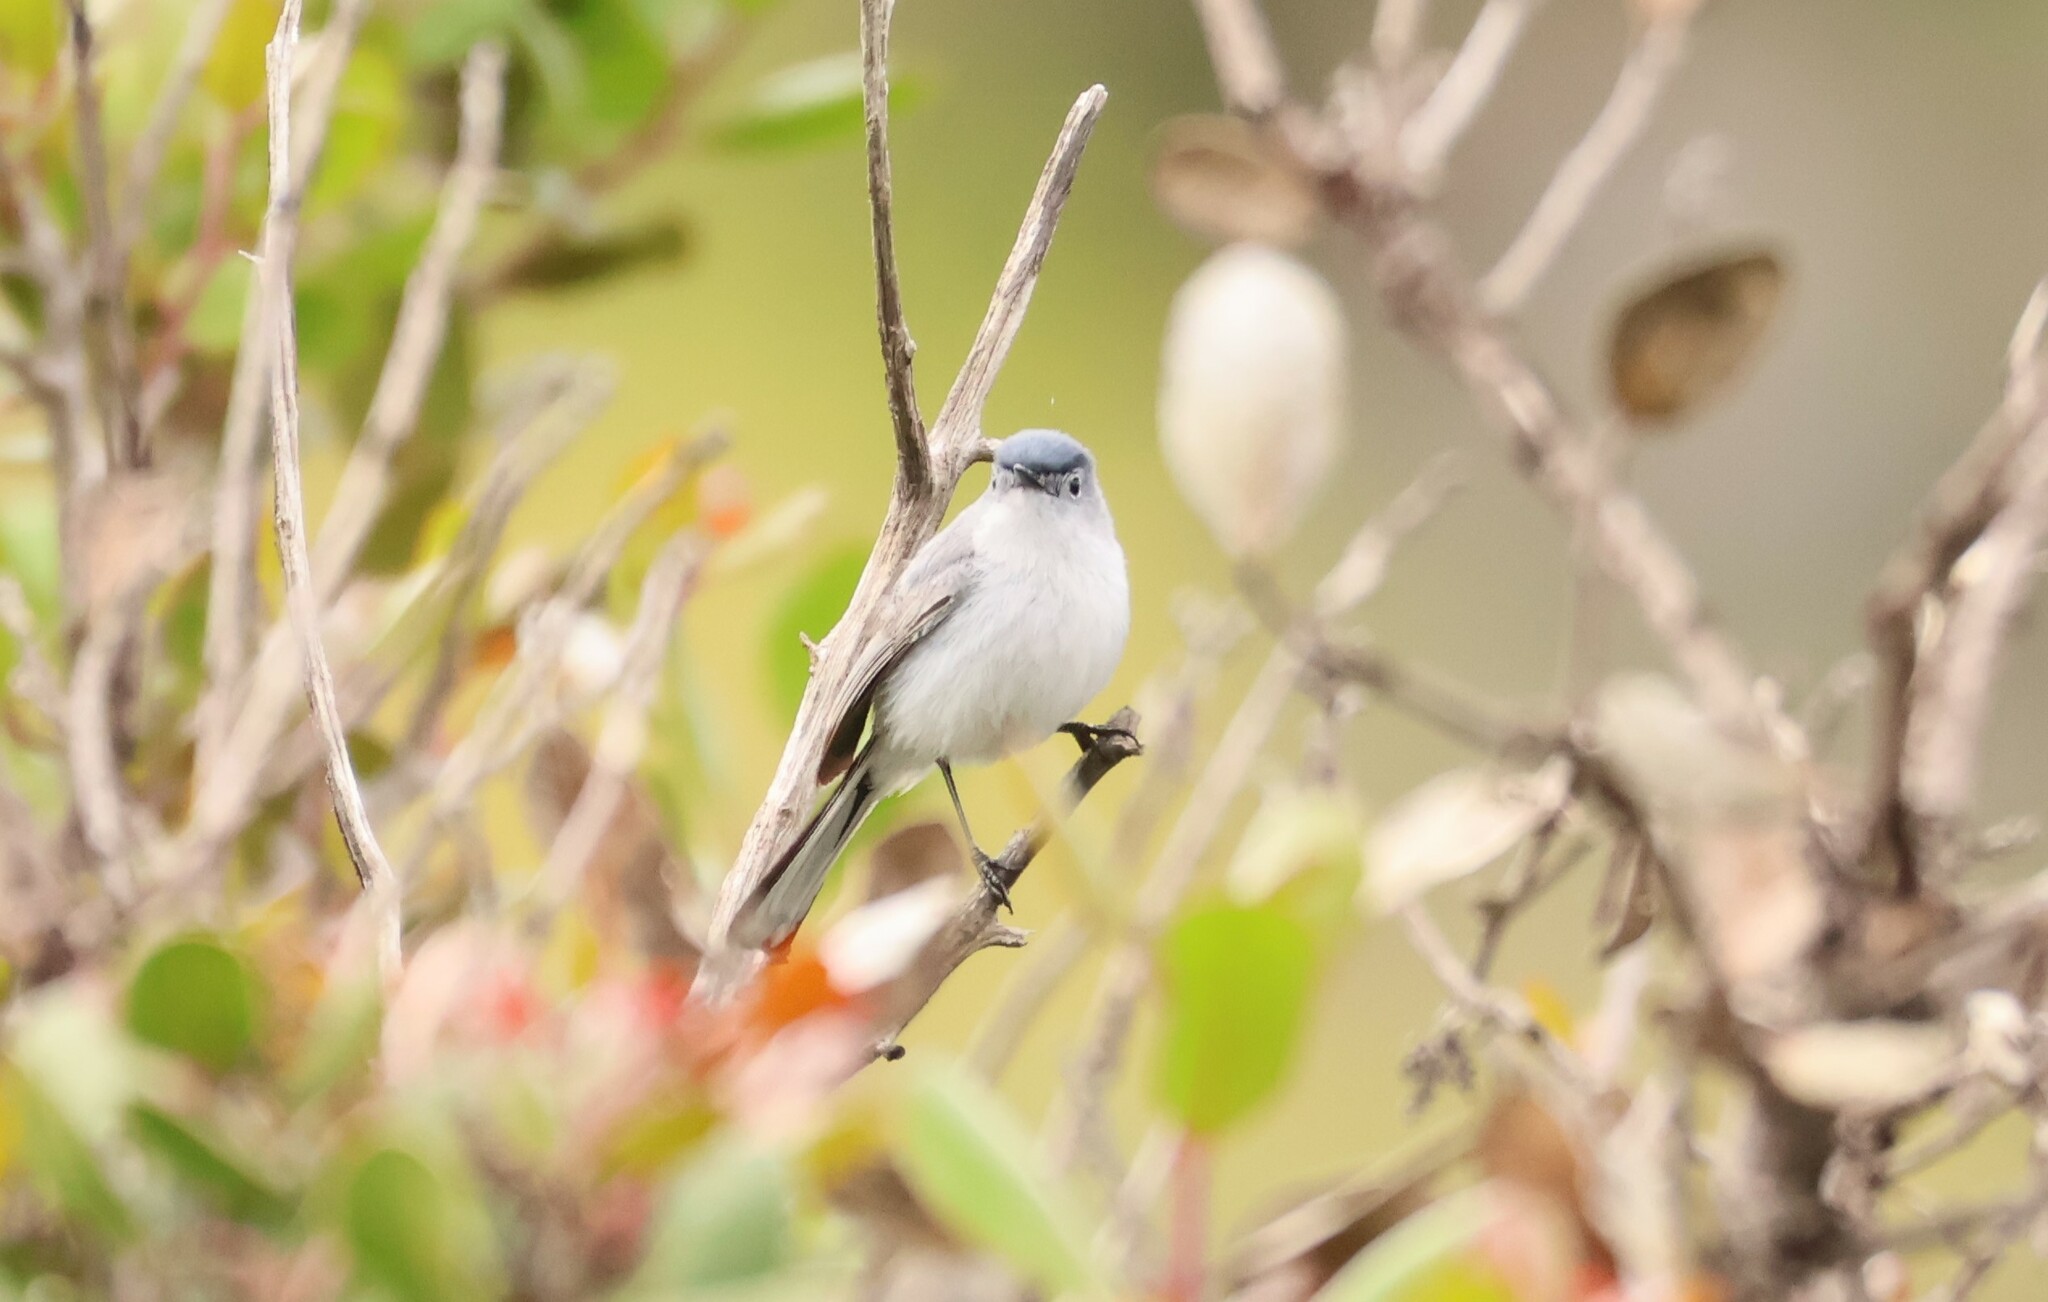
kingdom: Animalia
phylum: Chordata
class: Aves
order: Passeriformes
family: Polioptilidae
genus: Polioptila
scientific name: Polioptila caerulea
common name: Blue-gray gnatcatcher
